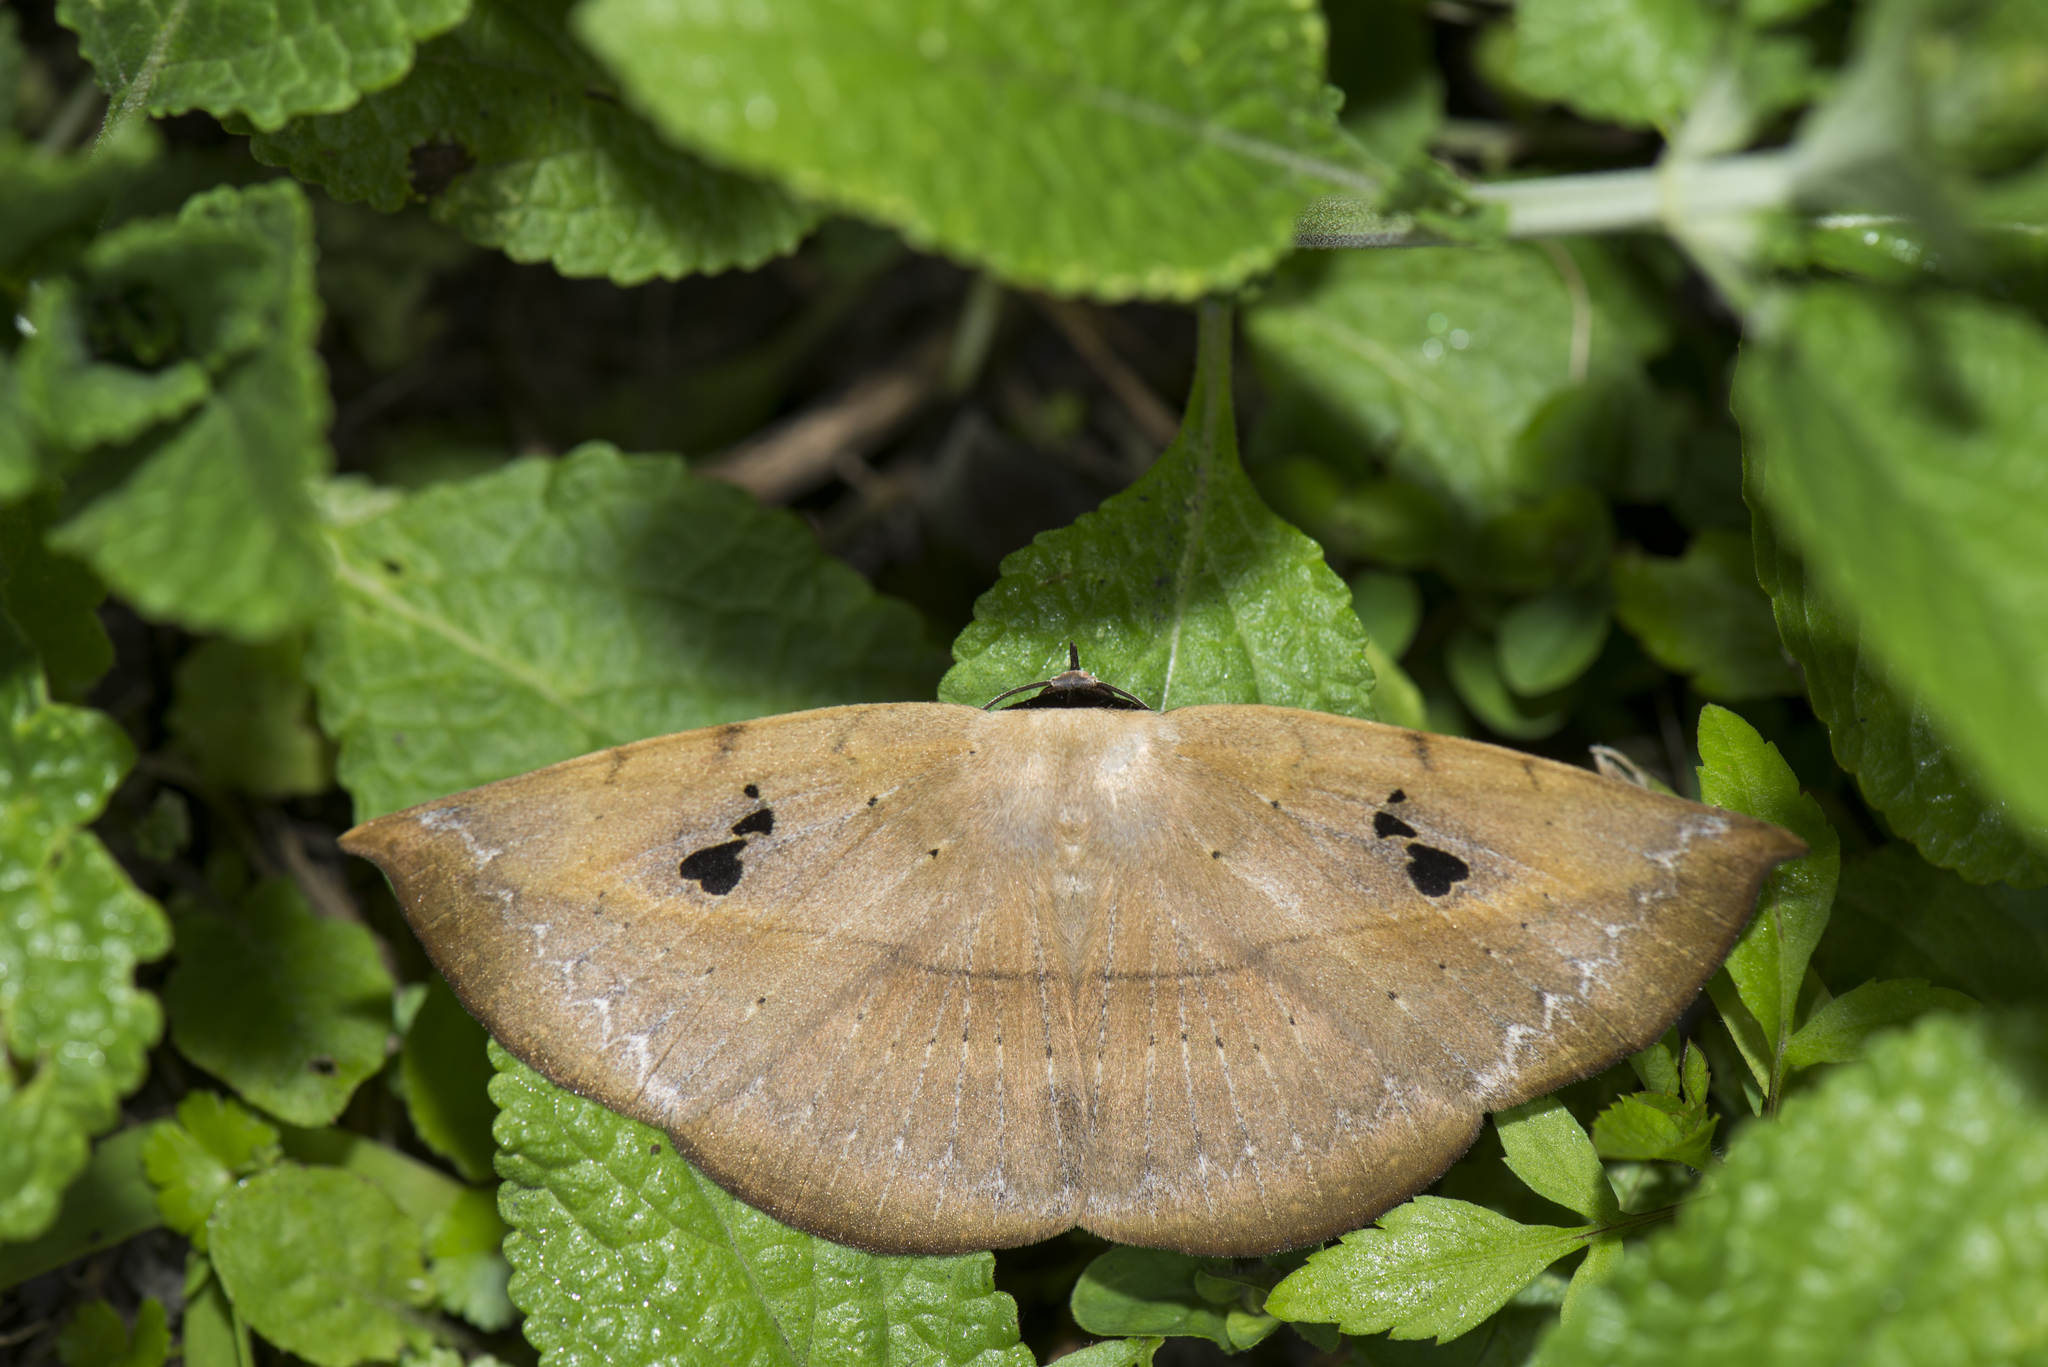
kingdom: Animalia
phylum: Arthropoda
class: Insecta
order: Lepidoptera
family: Erebidae
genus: Hypopyra
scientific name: Hypopyra ossigera
